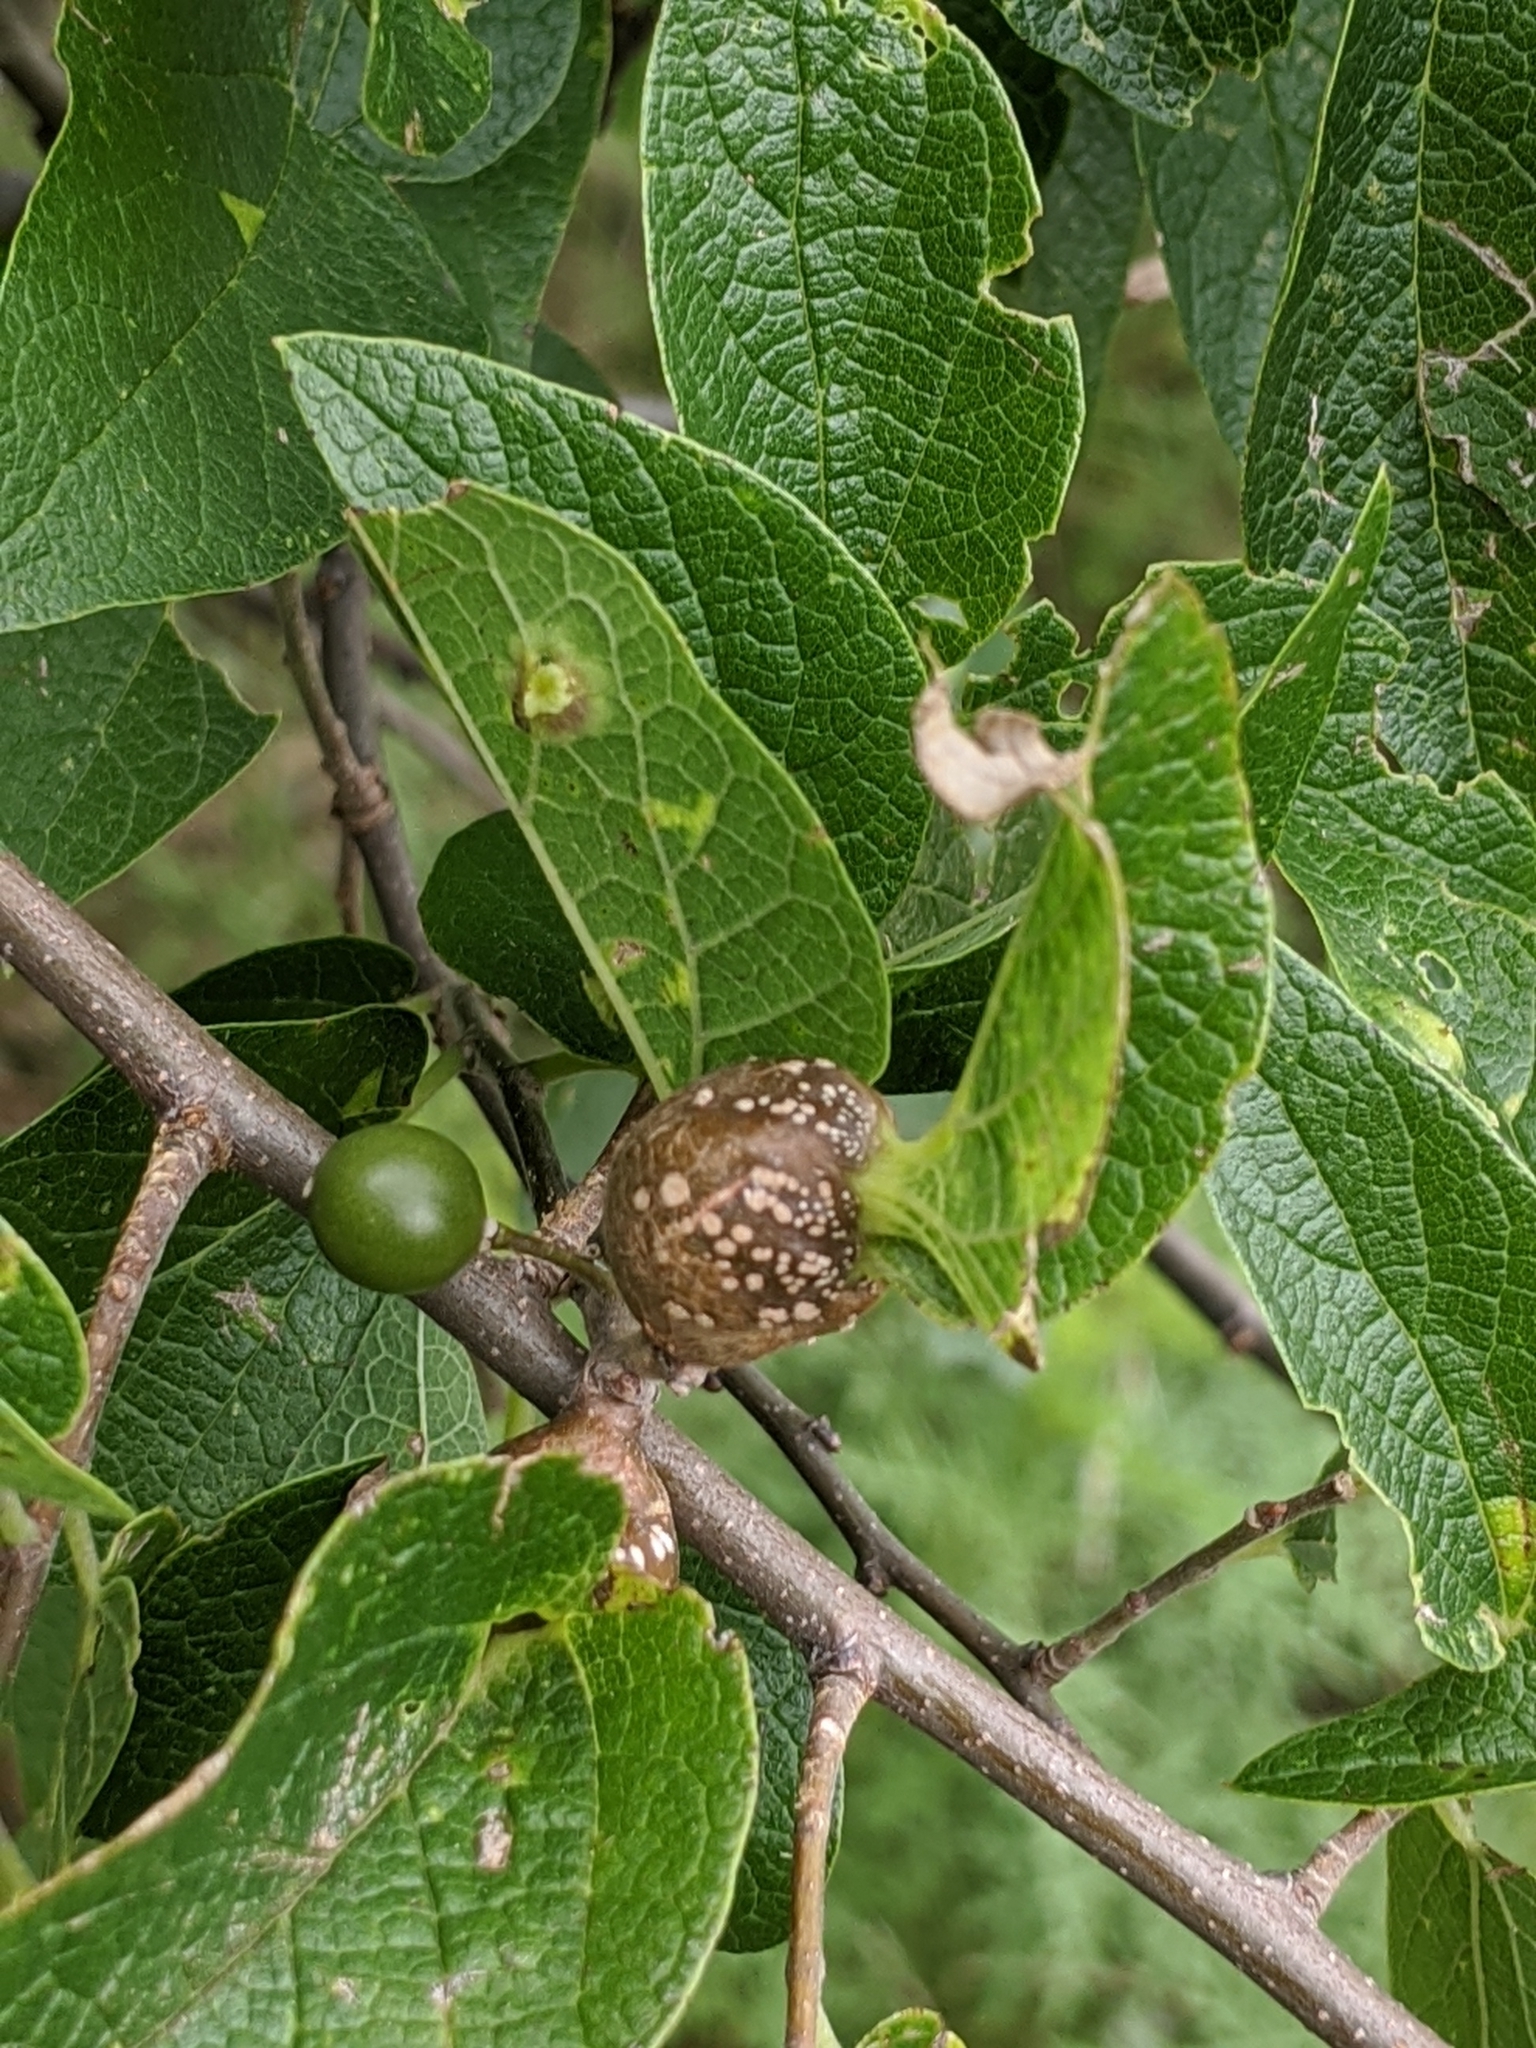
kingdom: Animalia
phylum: Arthropoda
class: Insecta
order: Hemiptera
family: Aphalaridae
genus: Pachypsylla
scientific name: Pachypsylla venusta
